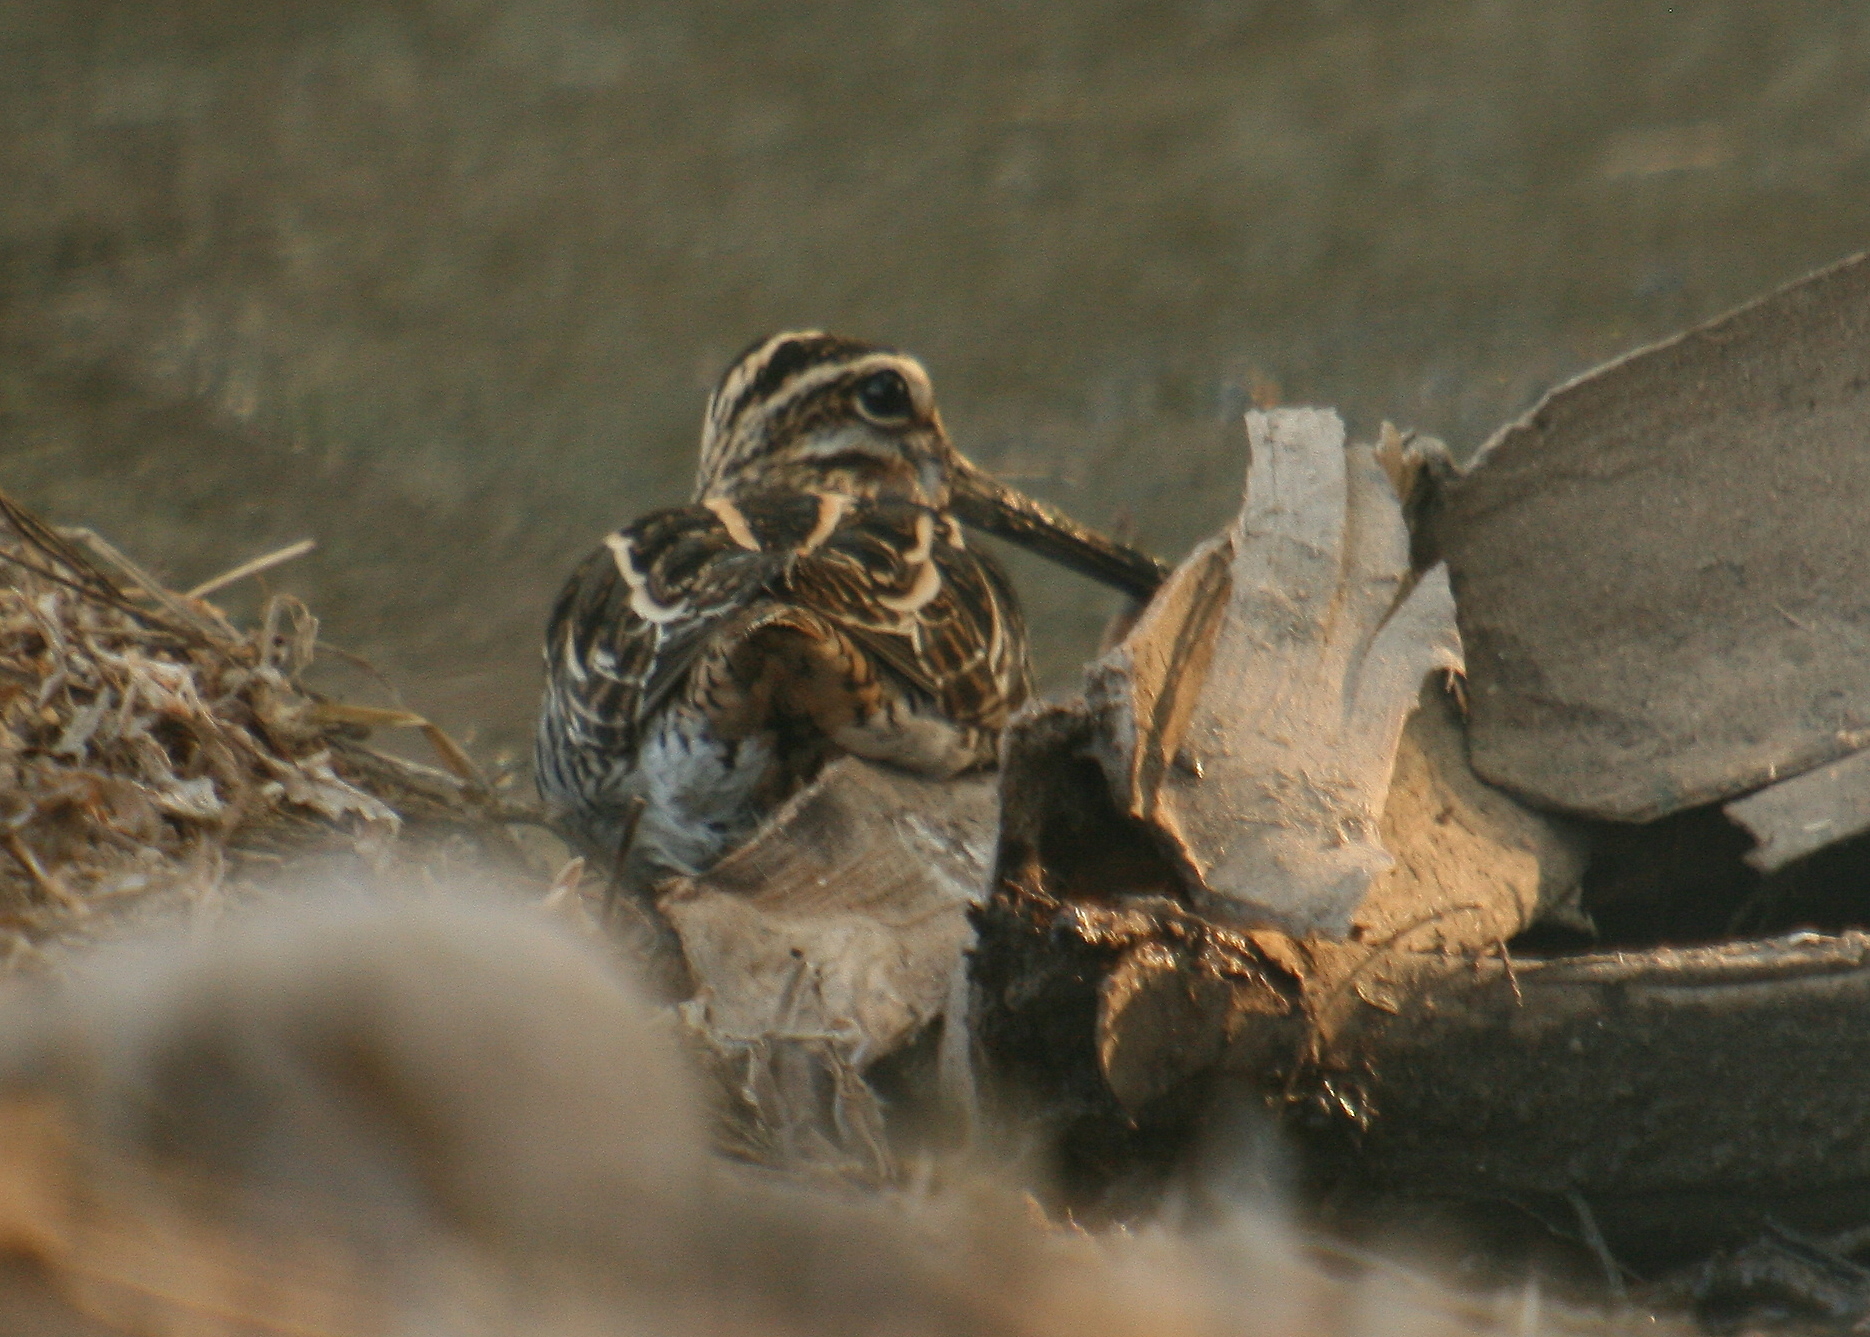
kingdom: Animalia
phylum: Chordata
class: Aves
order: Charadriiformes
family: Scolopacidae
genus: Gallinago
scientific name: Gallinago gallinago
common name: Common snipe
